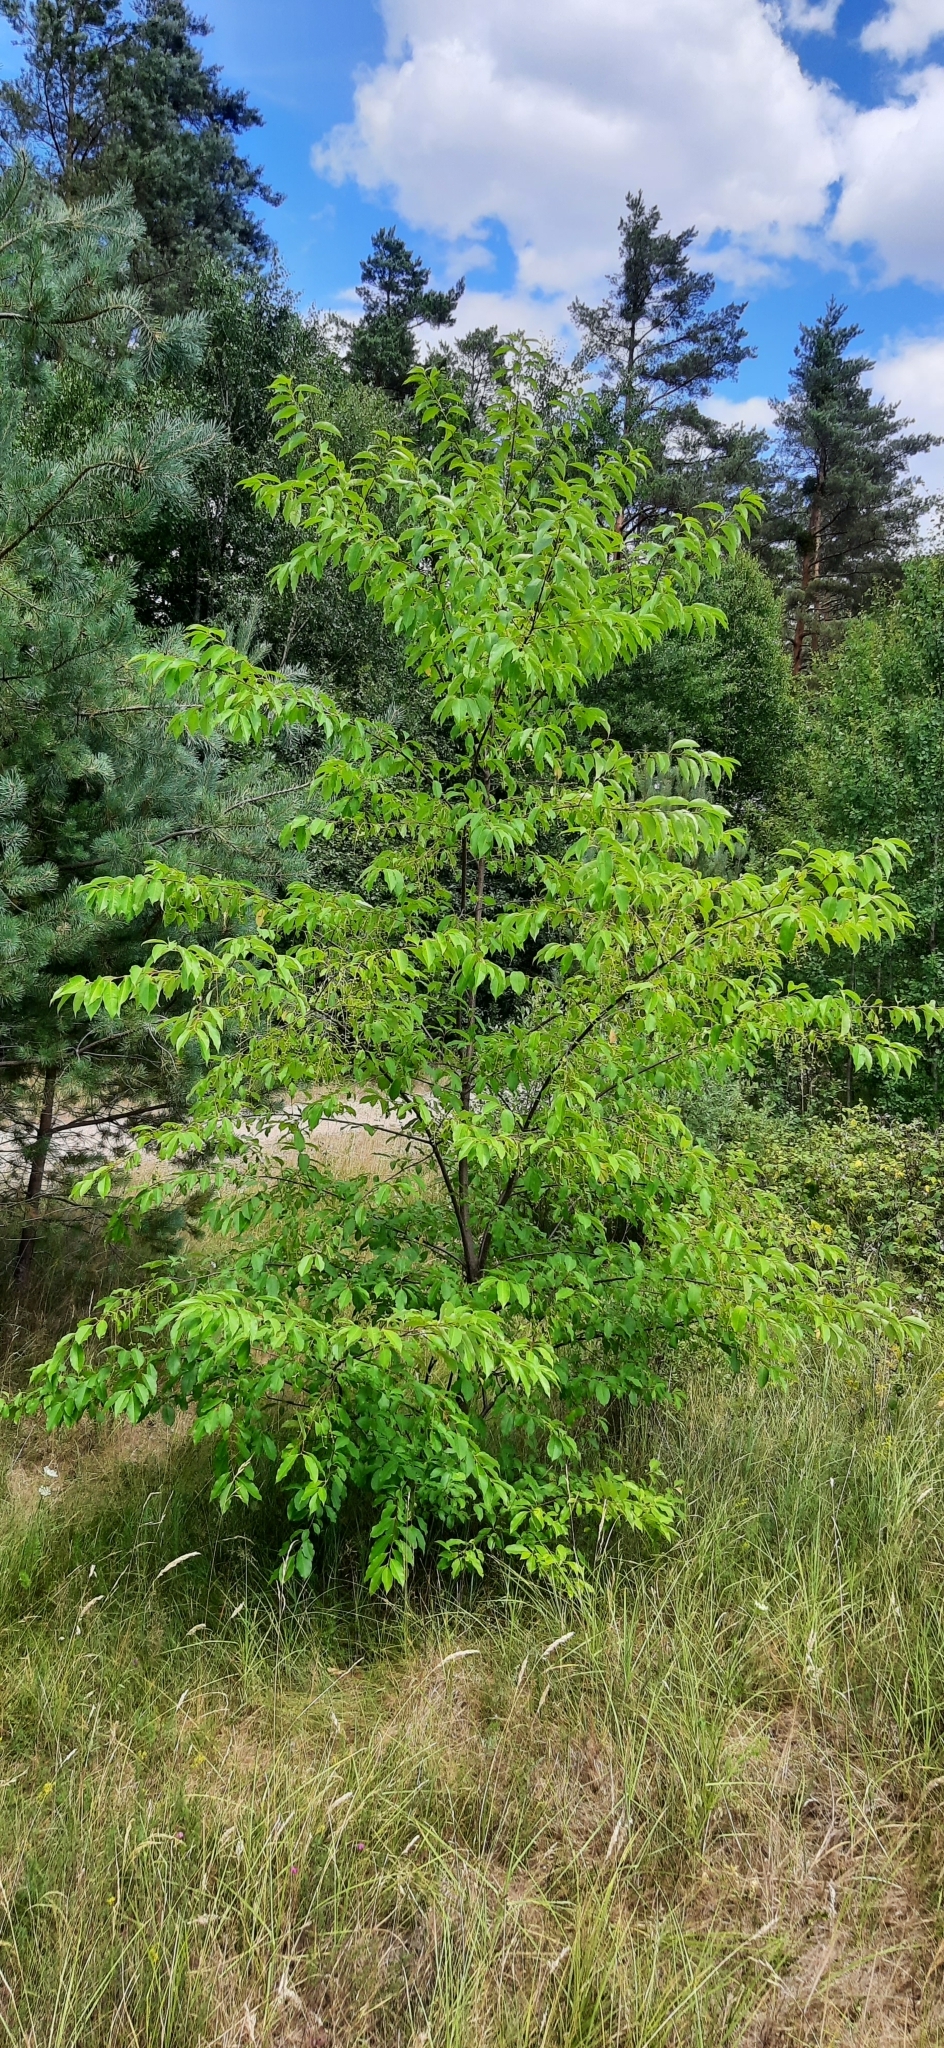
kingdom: Plantae
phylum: Tracheophyta
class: Magnoliopsida
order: Rosales
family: Rosaceae
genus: Prunus
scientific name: Prunus serotina
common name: Black cherry
